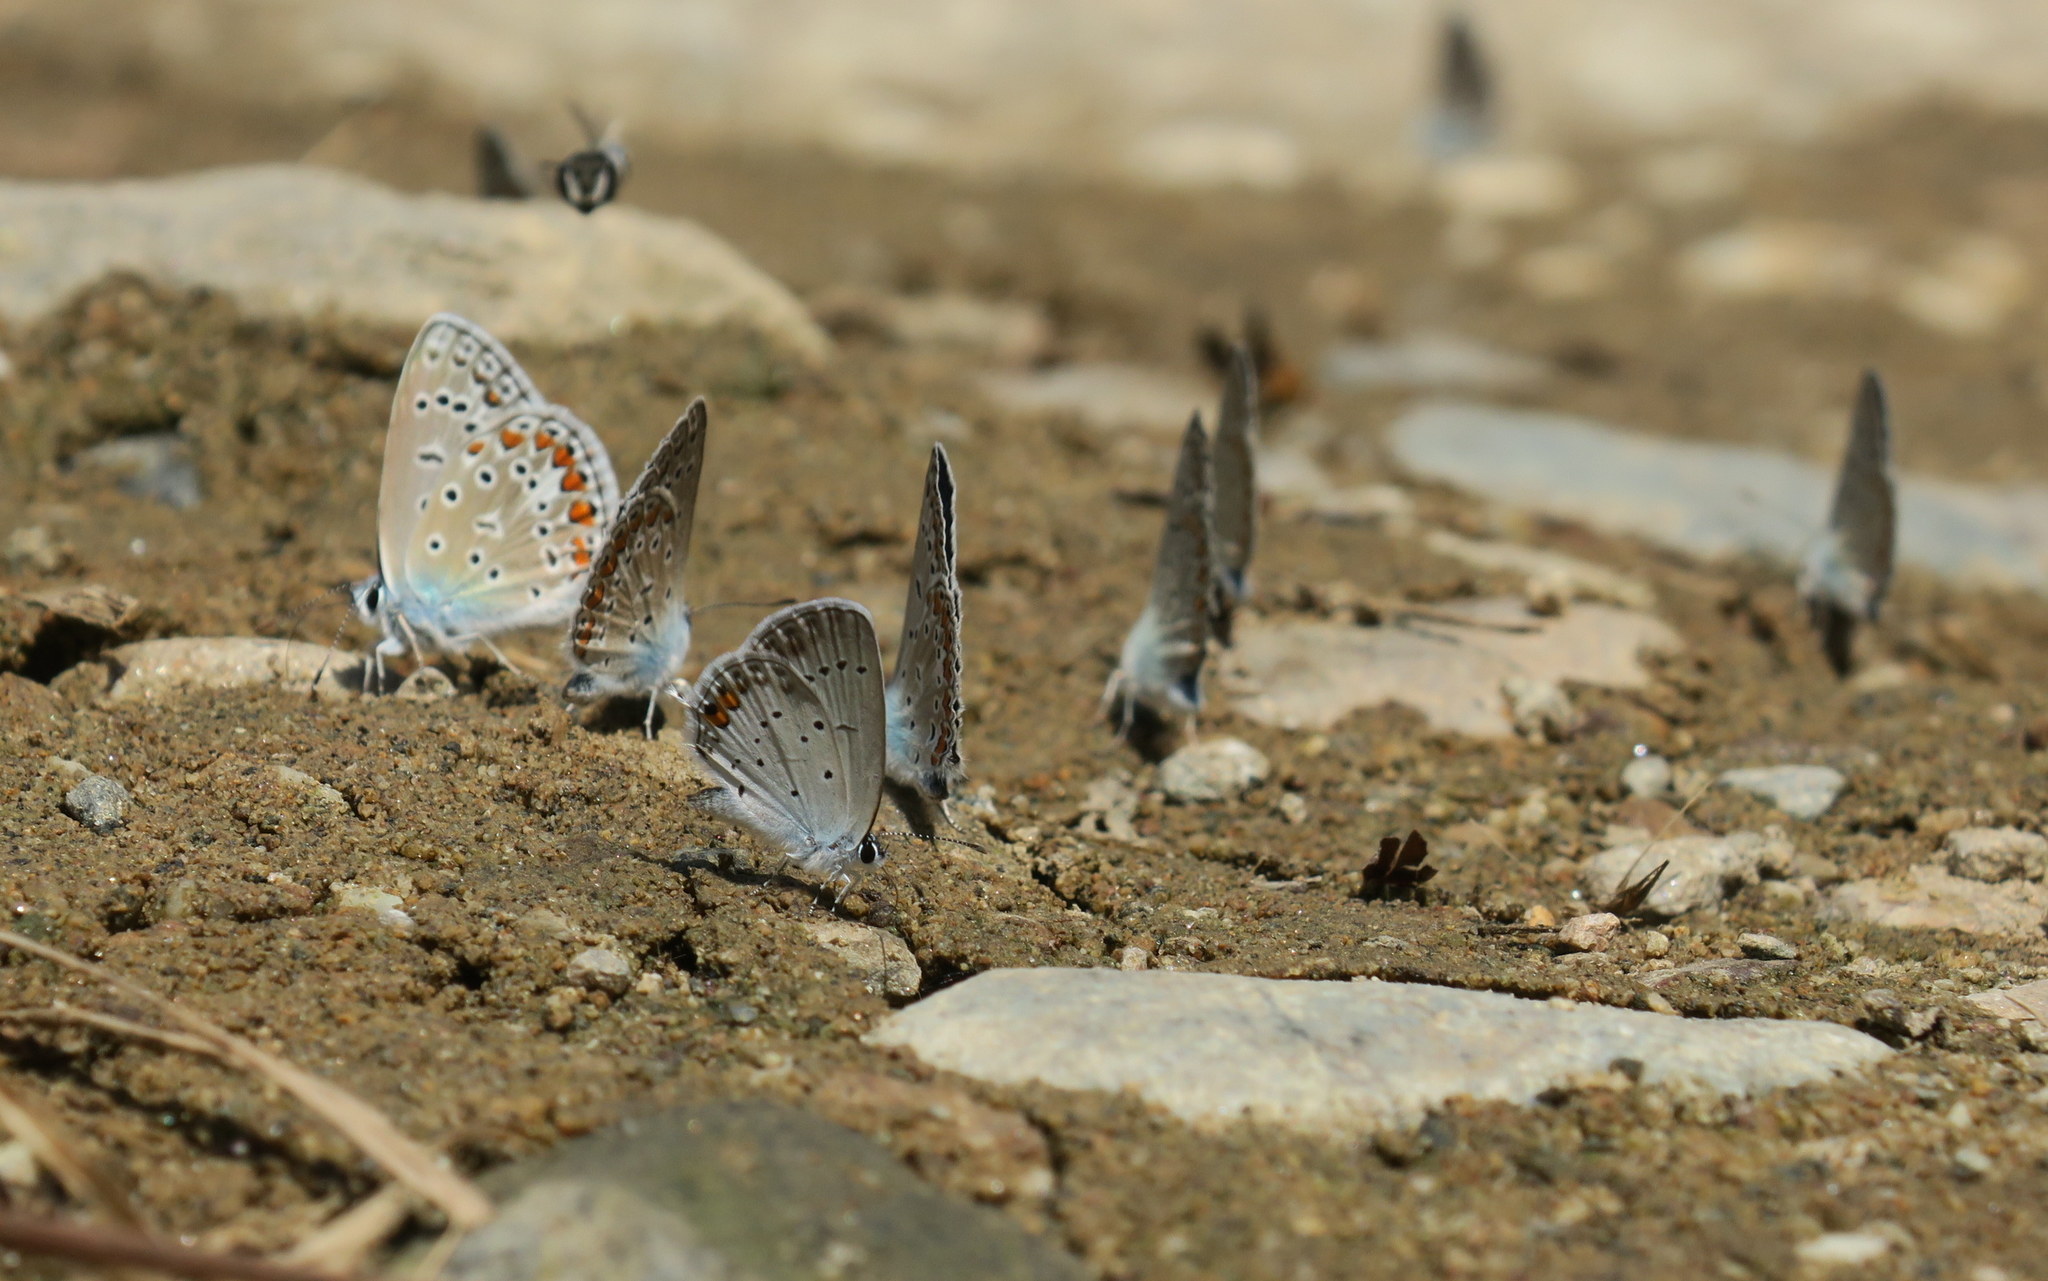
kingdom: Animalia
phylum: Arthropoda
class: Insecta
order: Lepidoptera
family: Lycaenidae
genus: Elkalyce
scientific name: Elkalyce argiades
